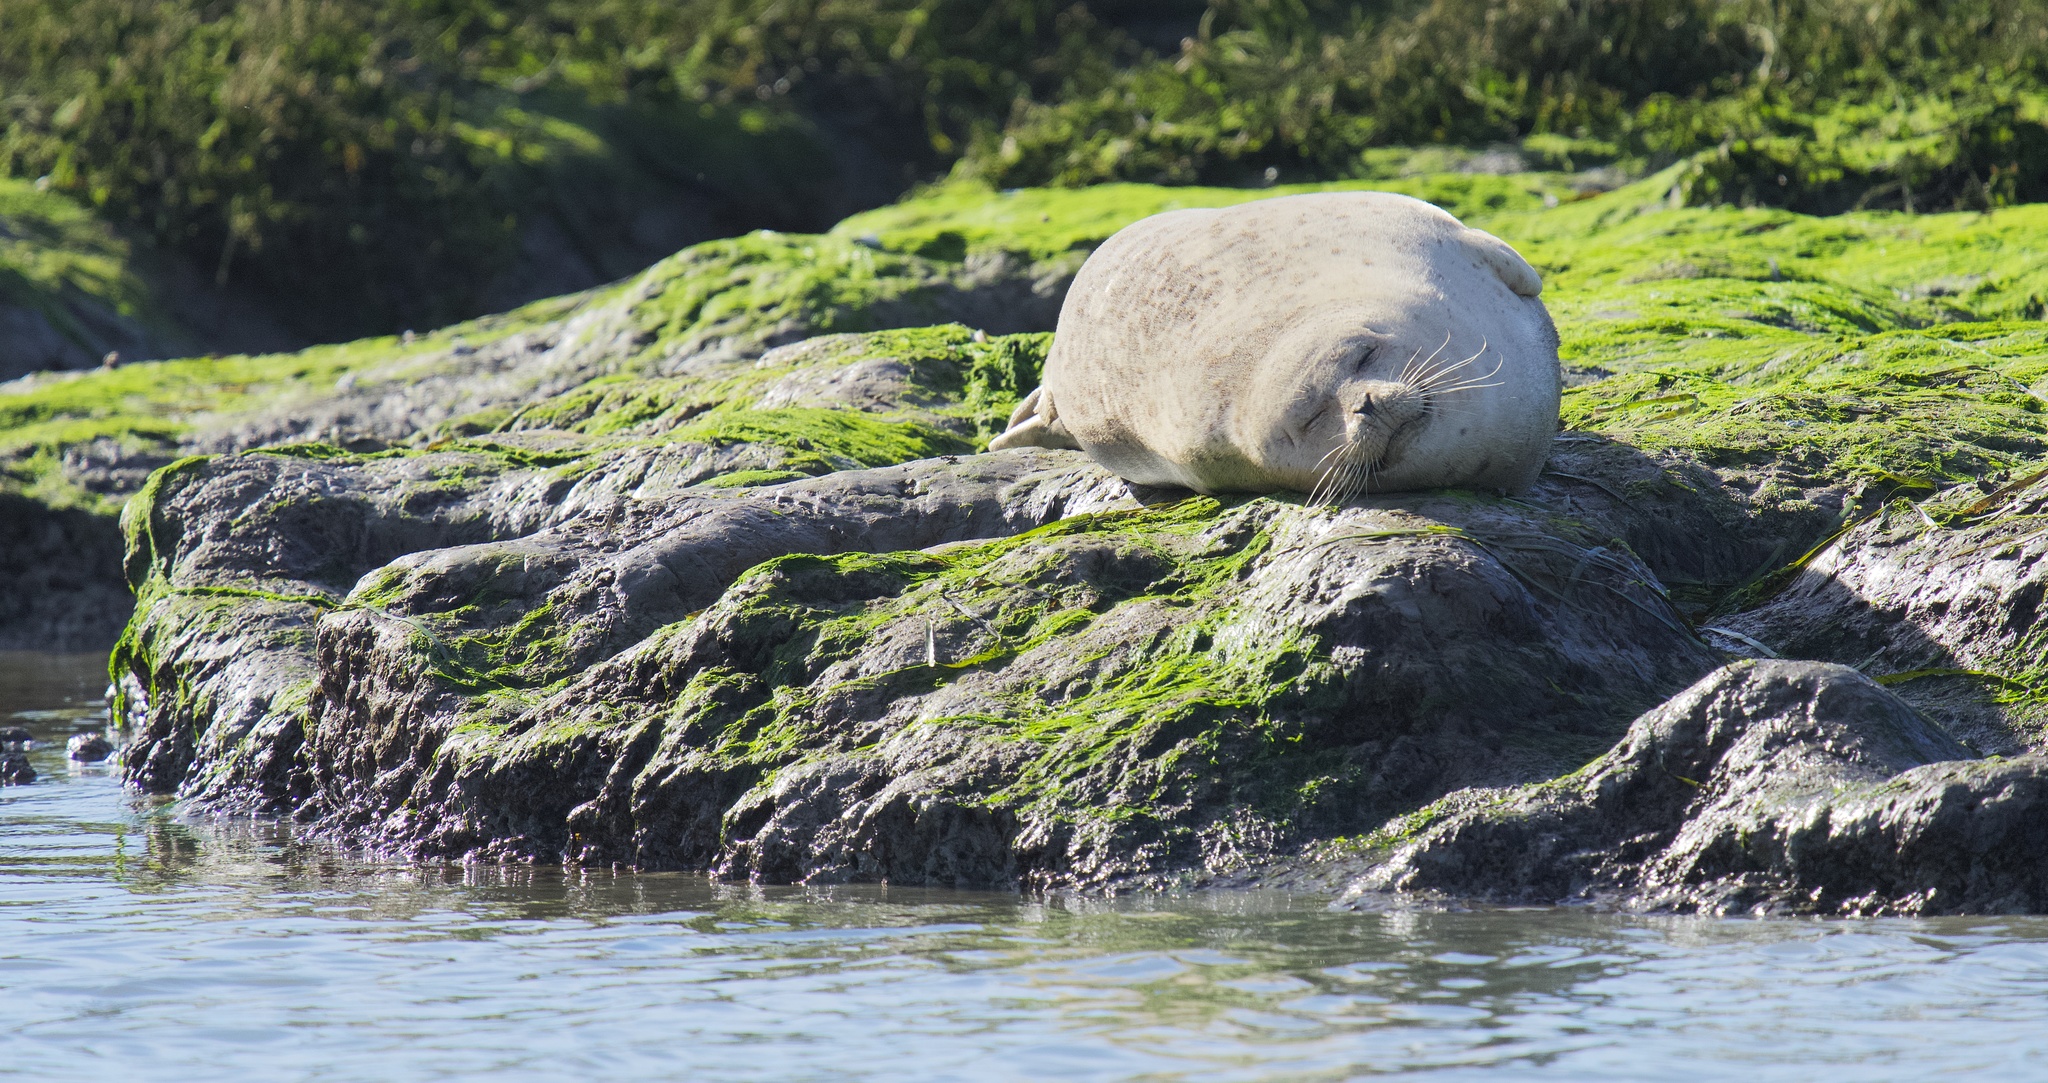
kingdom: Animalia
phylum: Chordata
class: Mammalia
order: Carnivora
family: Phocidae
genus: Phoca
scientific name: Phoca vitulina
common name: Harbor seal
